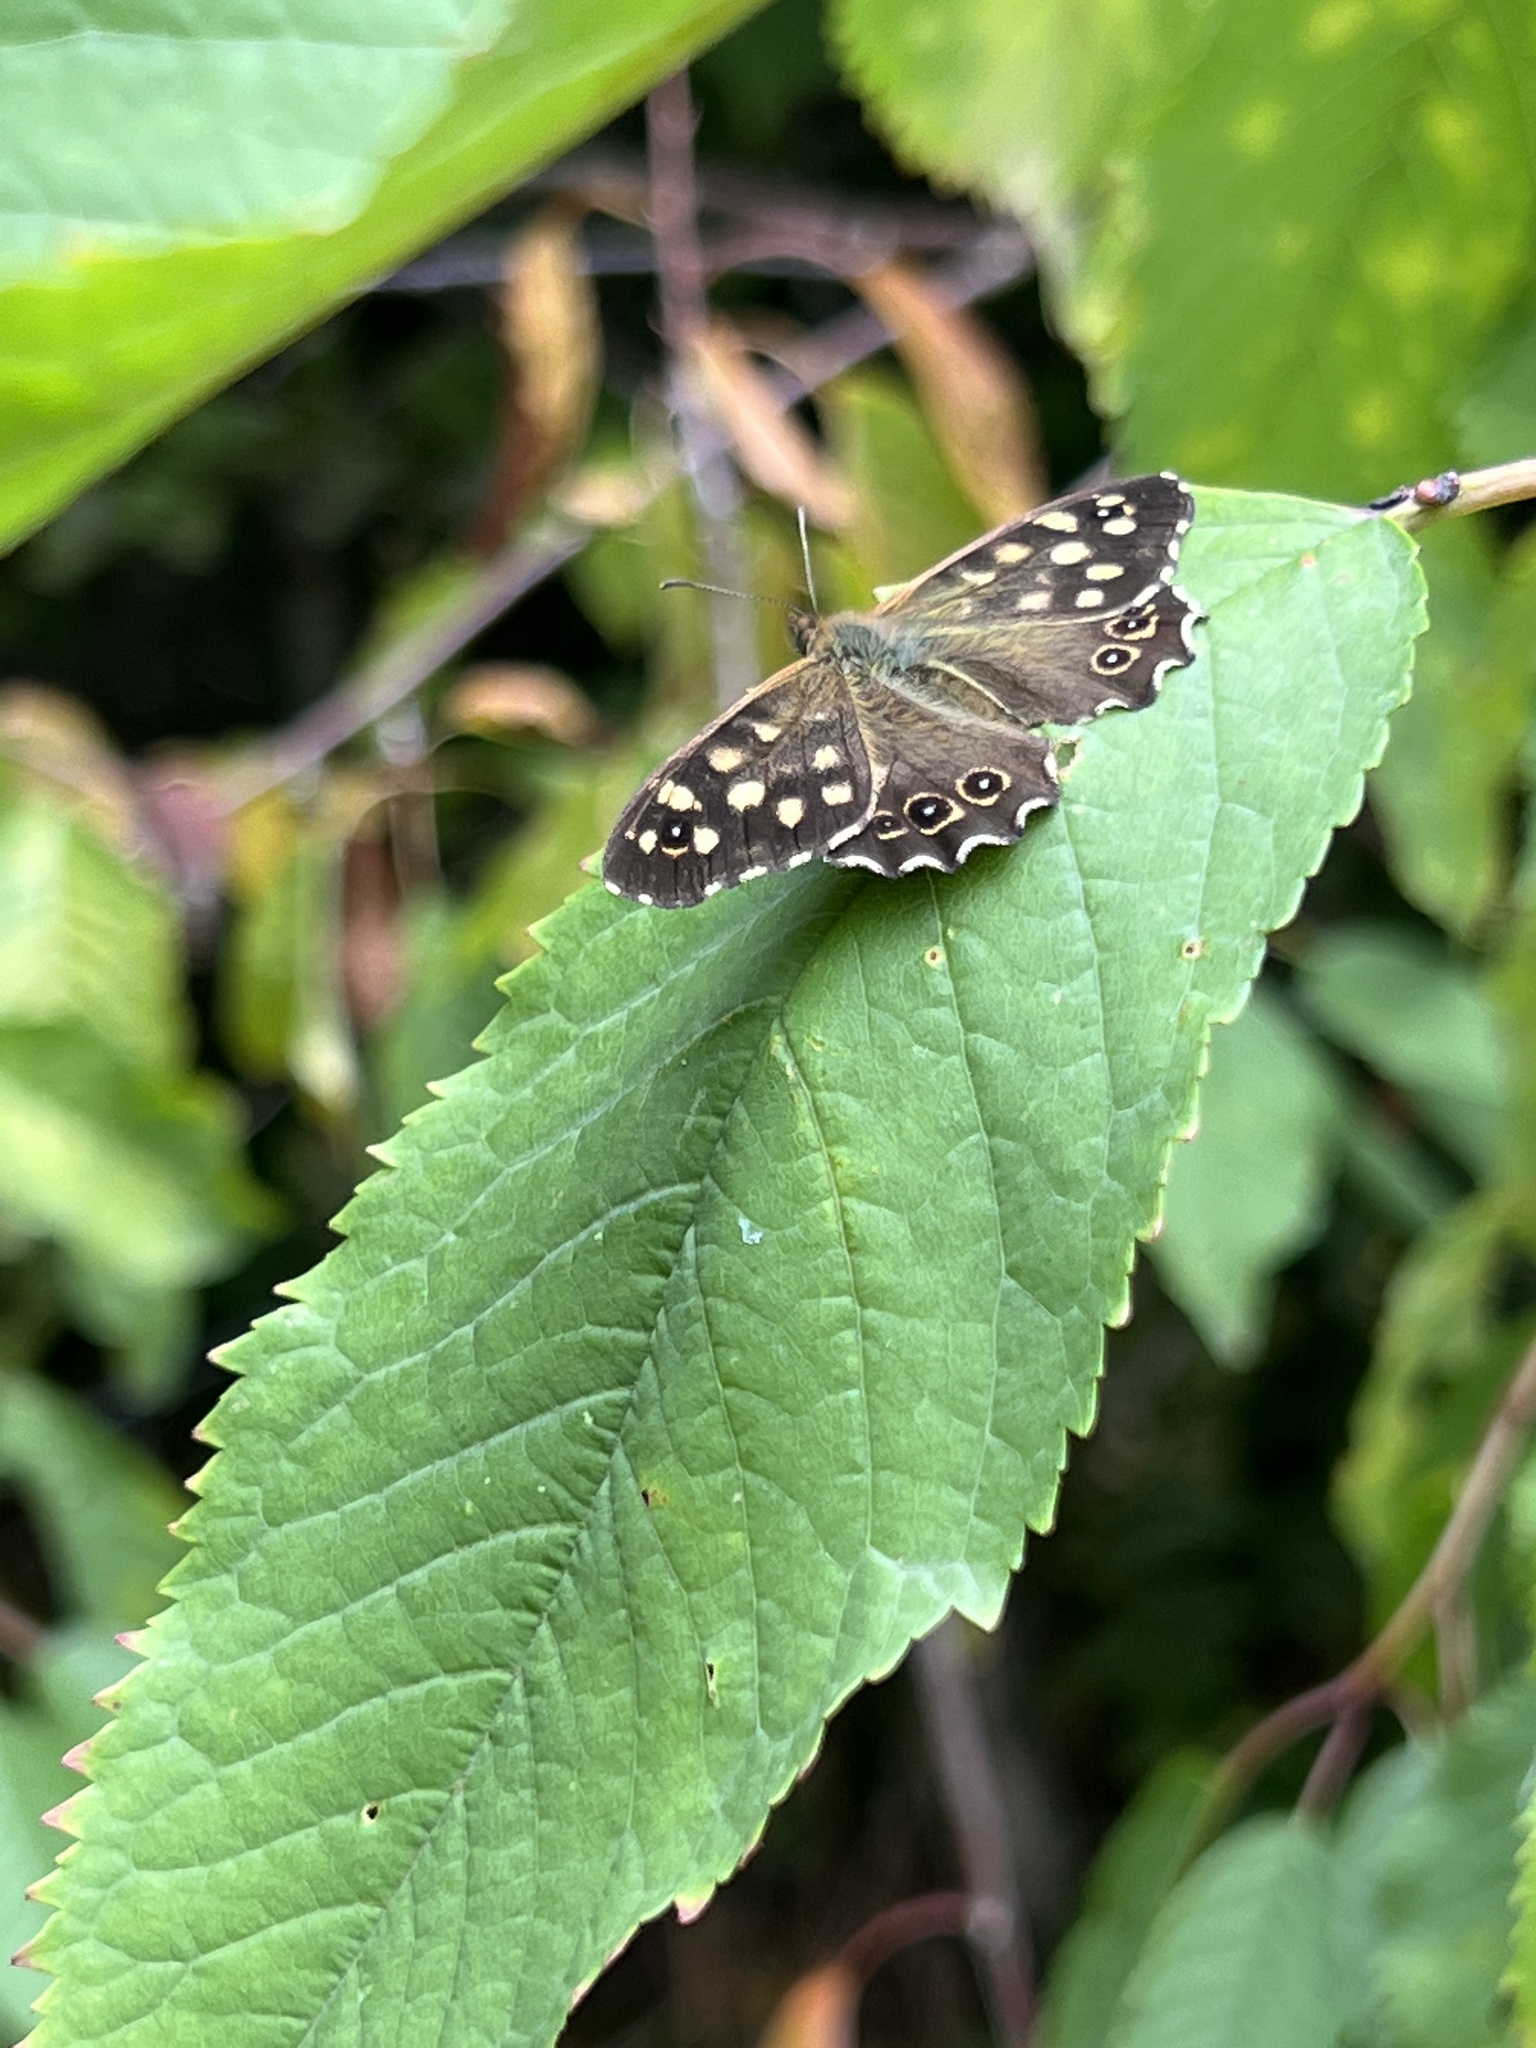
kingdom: Animalia
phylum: Arthropoda
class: Insecta
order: Lepidoptera
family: Nymphalidae
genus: Pararge
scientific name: Pararge aegeria
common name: Speckled wood
